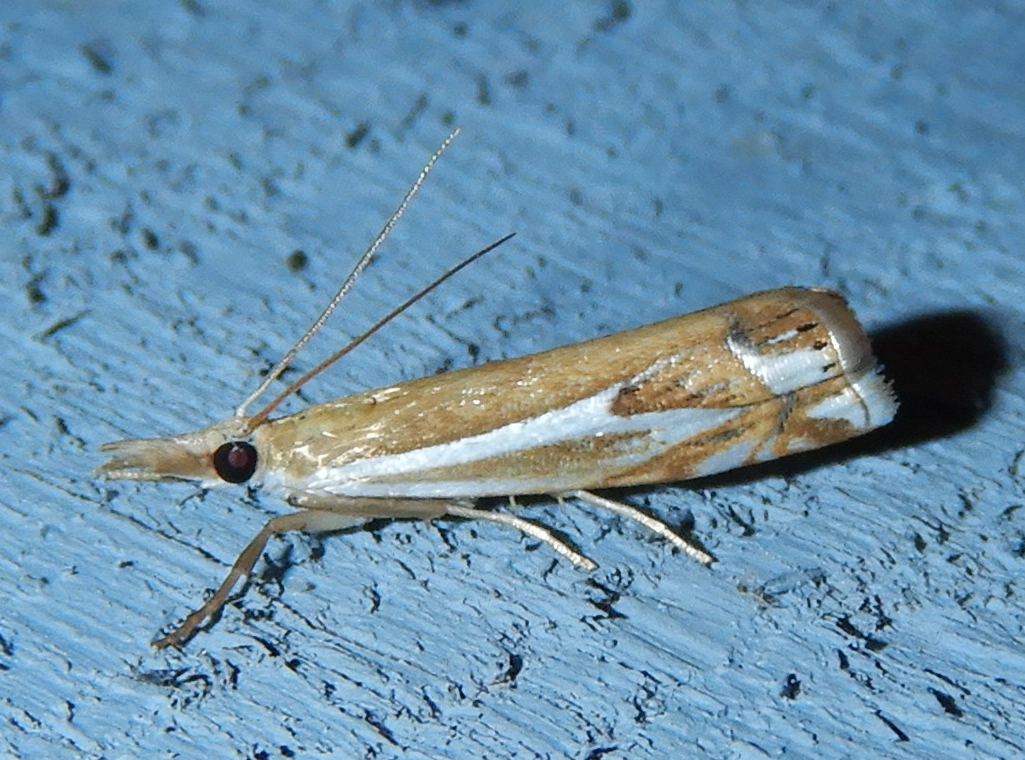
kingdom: Animalia
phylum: Arthropoda
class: Insecta
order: Lepidoptera
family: Crambidae
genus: Crambus
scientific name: Crambus bidens
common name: Forked grass-veneer
